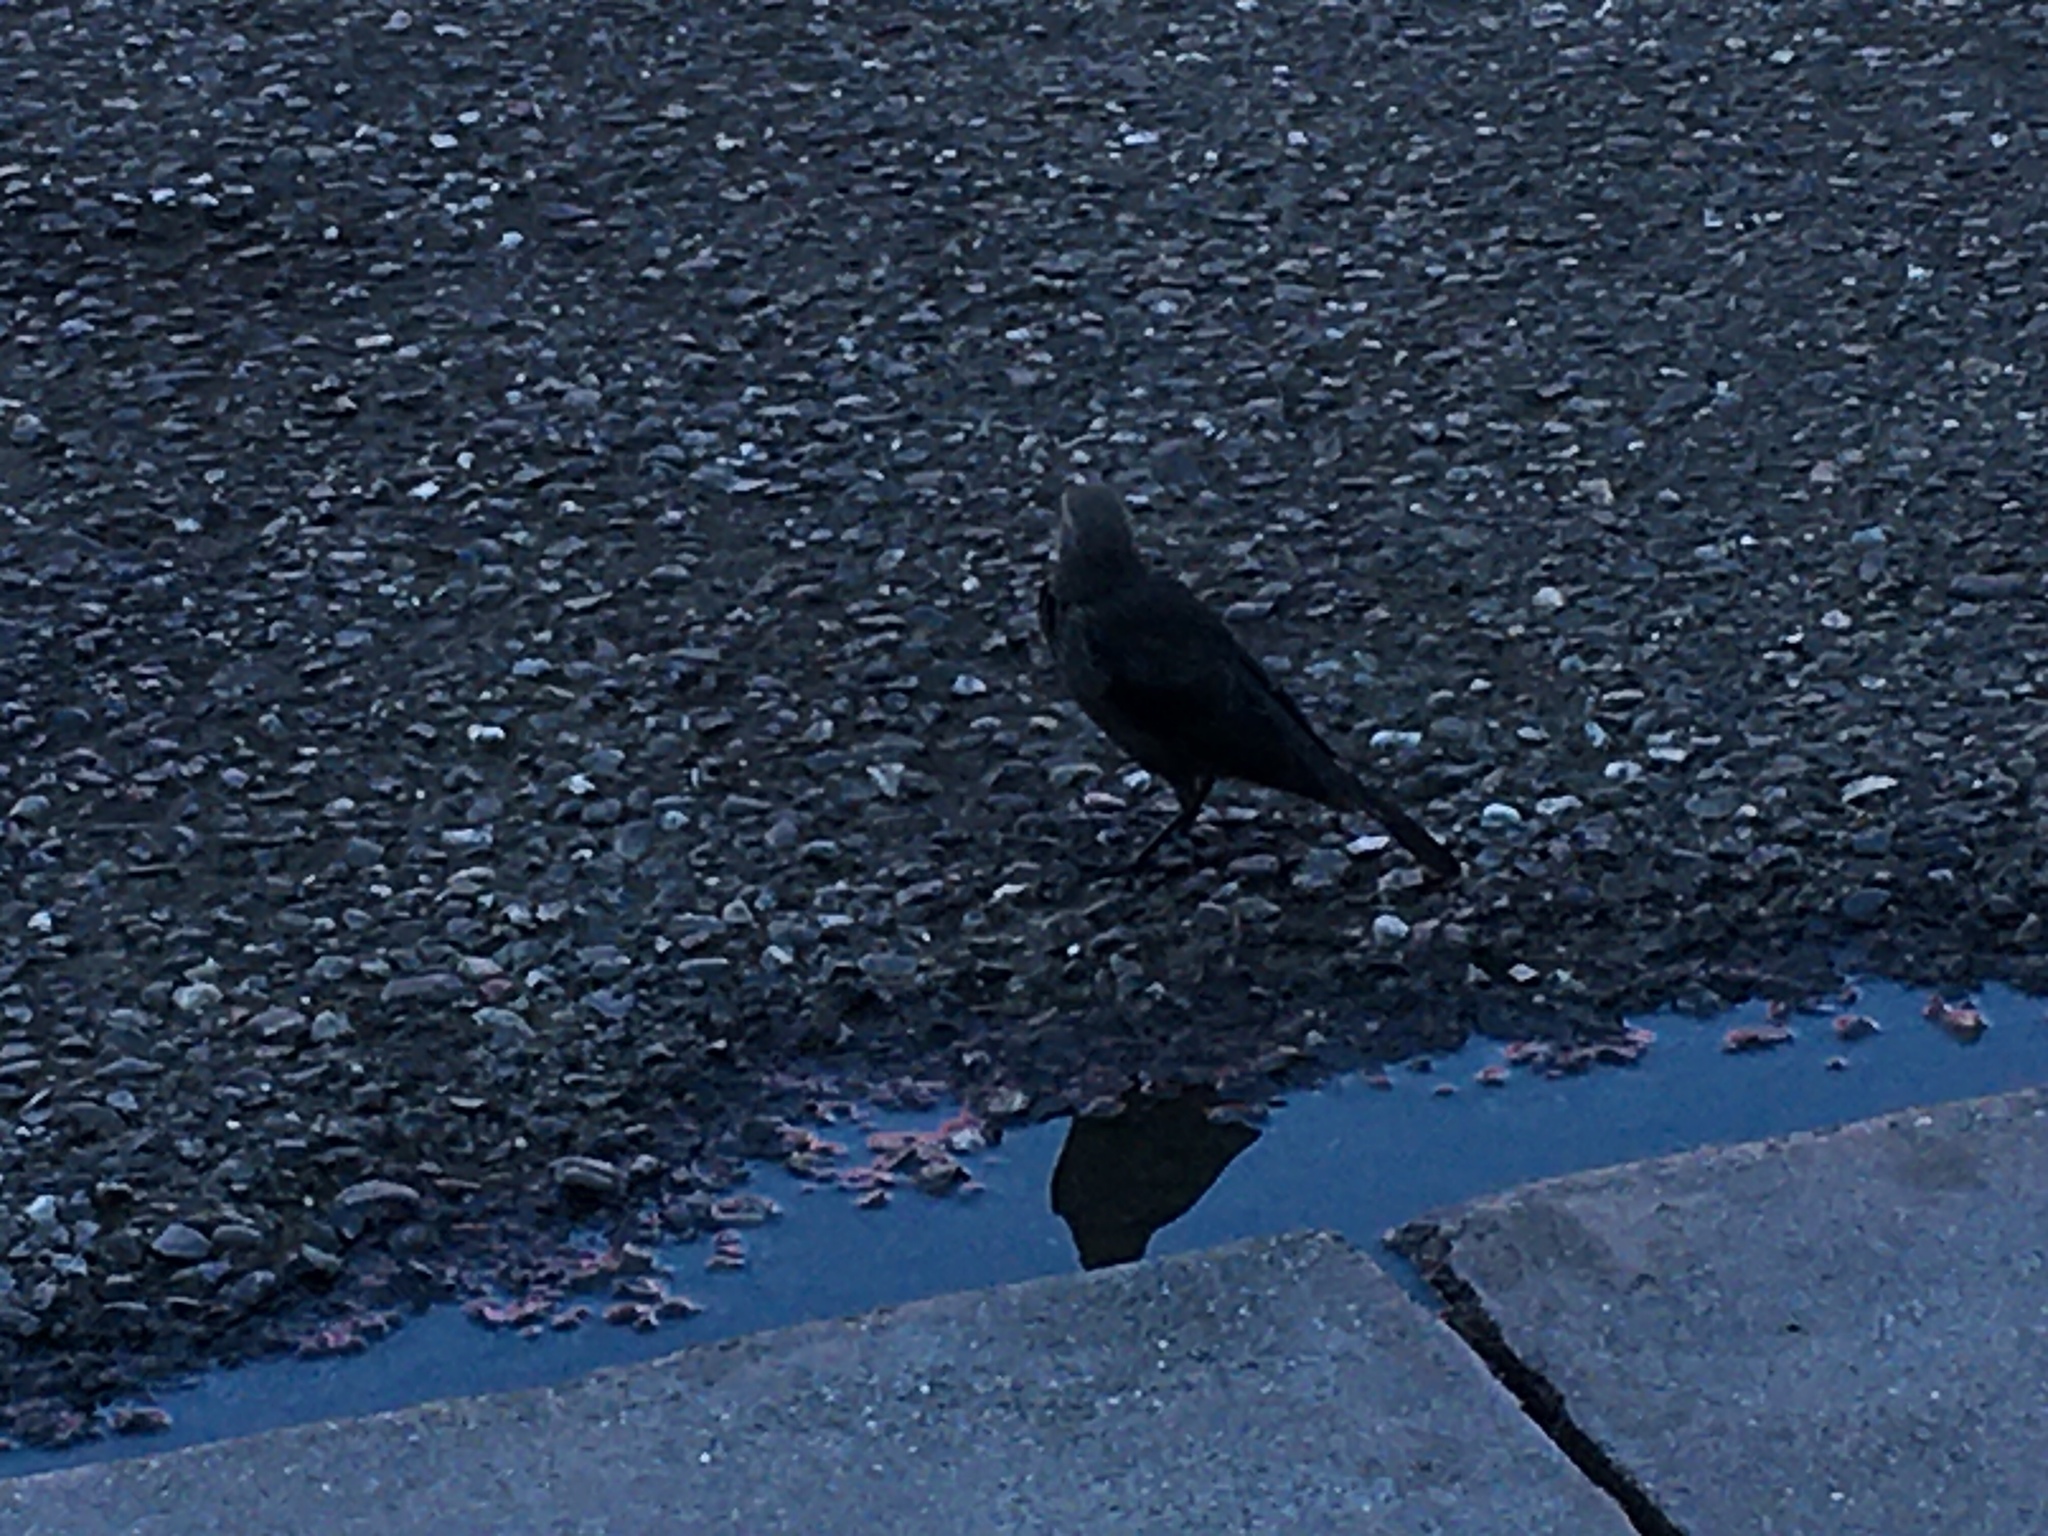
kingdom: Animalia
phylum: Chordata
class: Aves
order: Passeriformes
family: Icteridae
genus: Euphagus
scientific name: Euphagus cyanocephalus
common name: Brewer's blackbird
